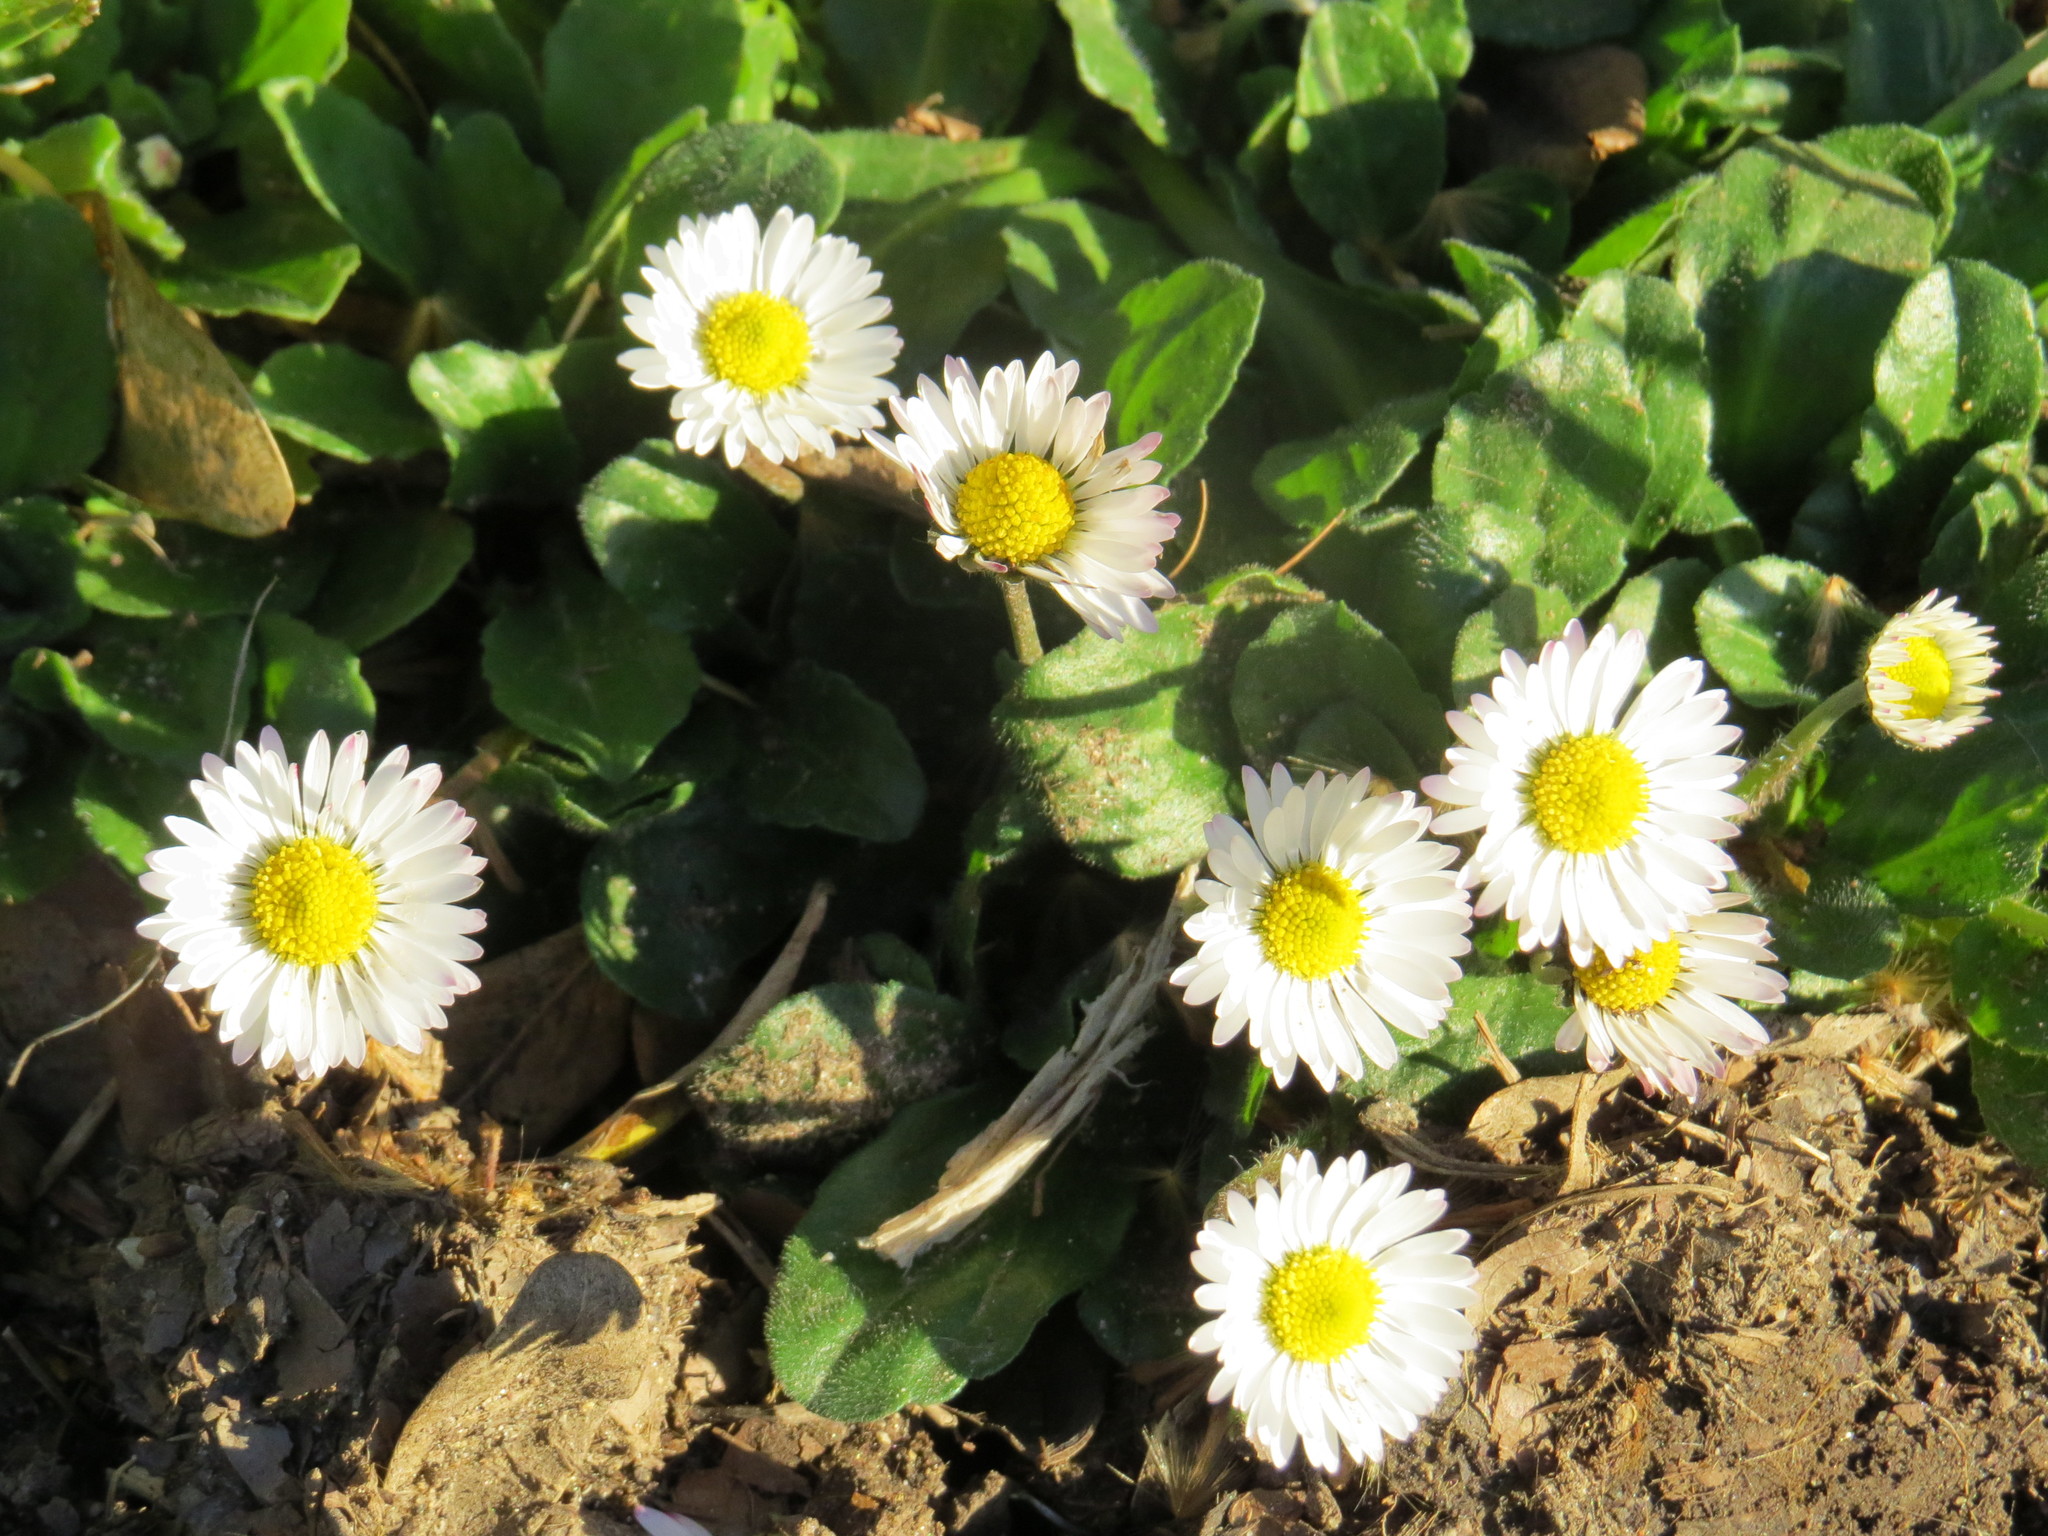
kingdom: Plantae
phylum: Tracheophyta
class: Magnoliopsida
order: Asterales
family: Asteraceae
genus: Bellis
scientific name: Bellis perennis
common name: Lawndaisy
